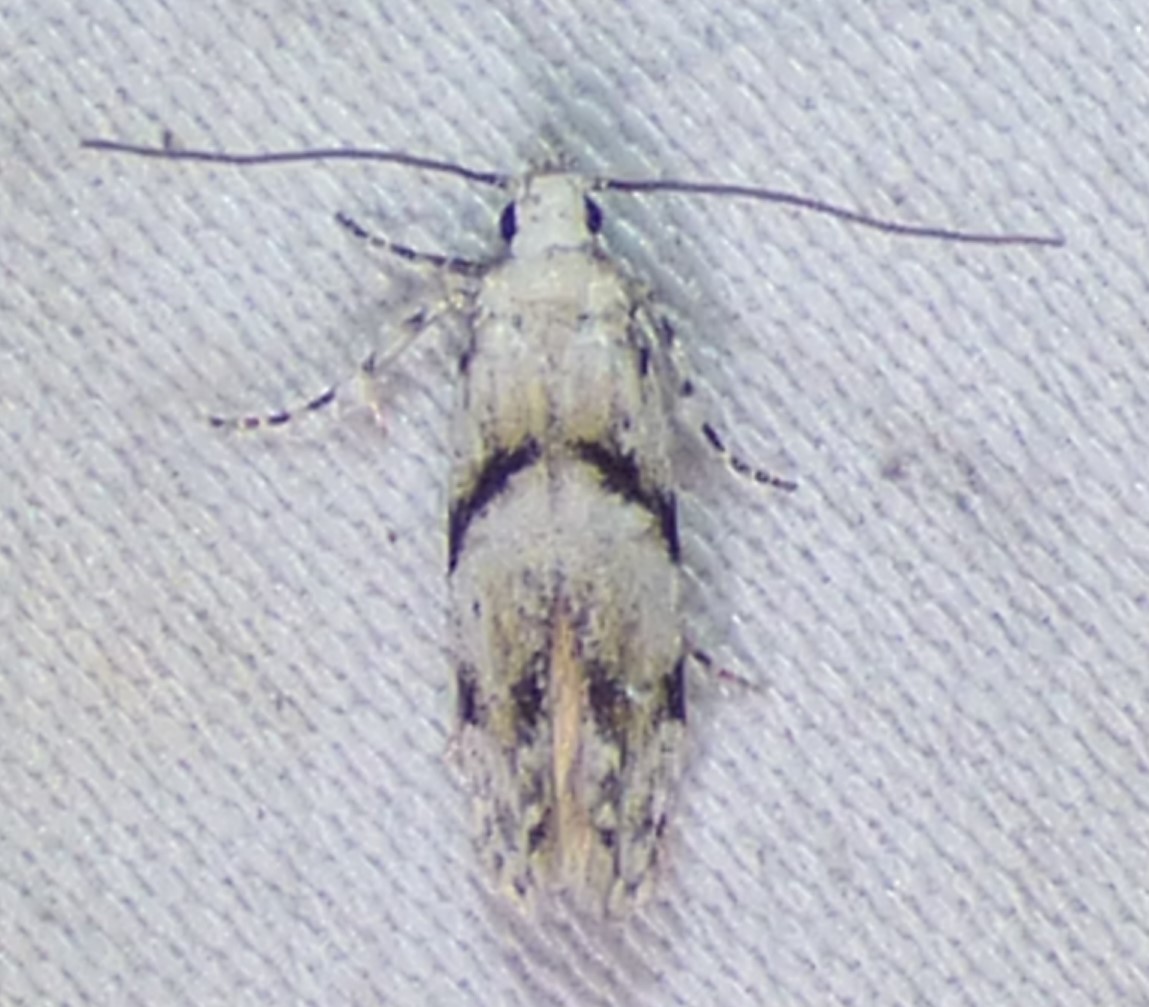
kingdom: Animalia
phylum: Arthropoda
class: Insecta
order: Lepidoptera
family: Gelechiidae
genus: Arogalea
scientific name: Arogalea cristifasciella
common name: White stripe-backed moth
